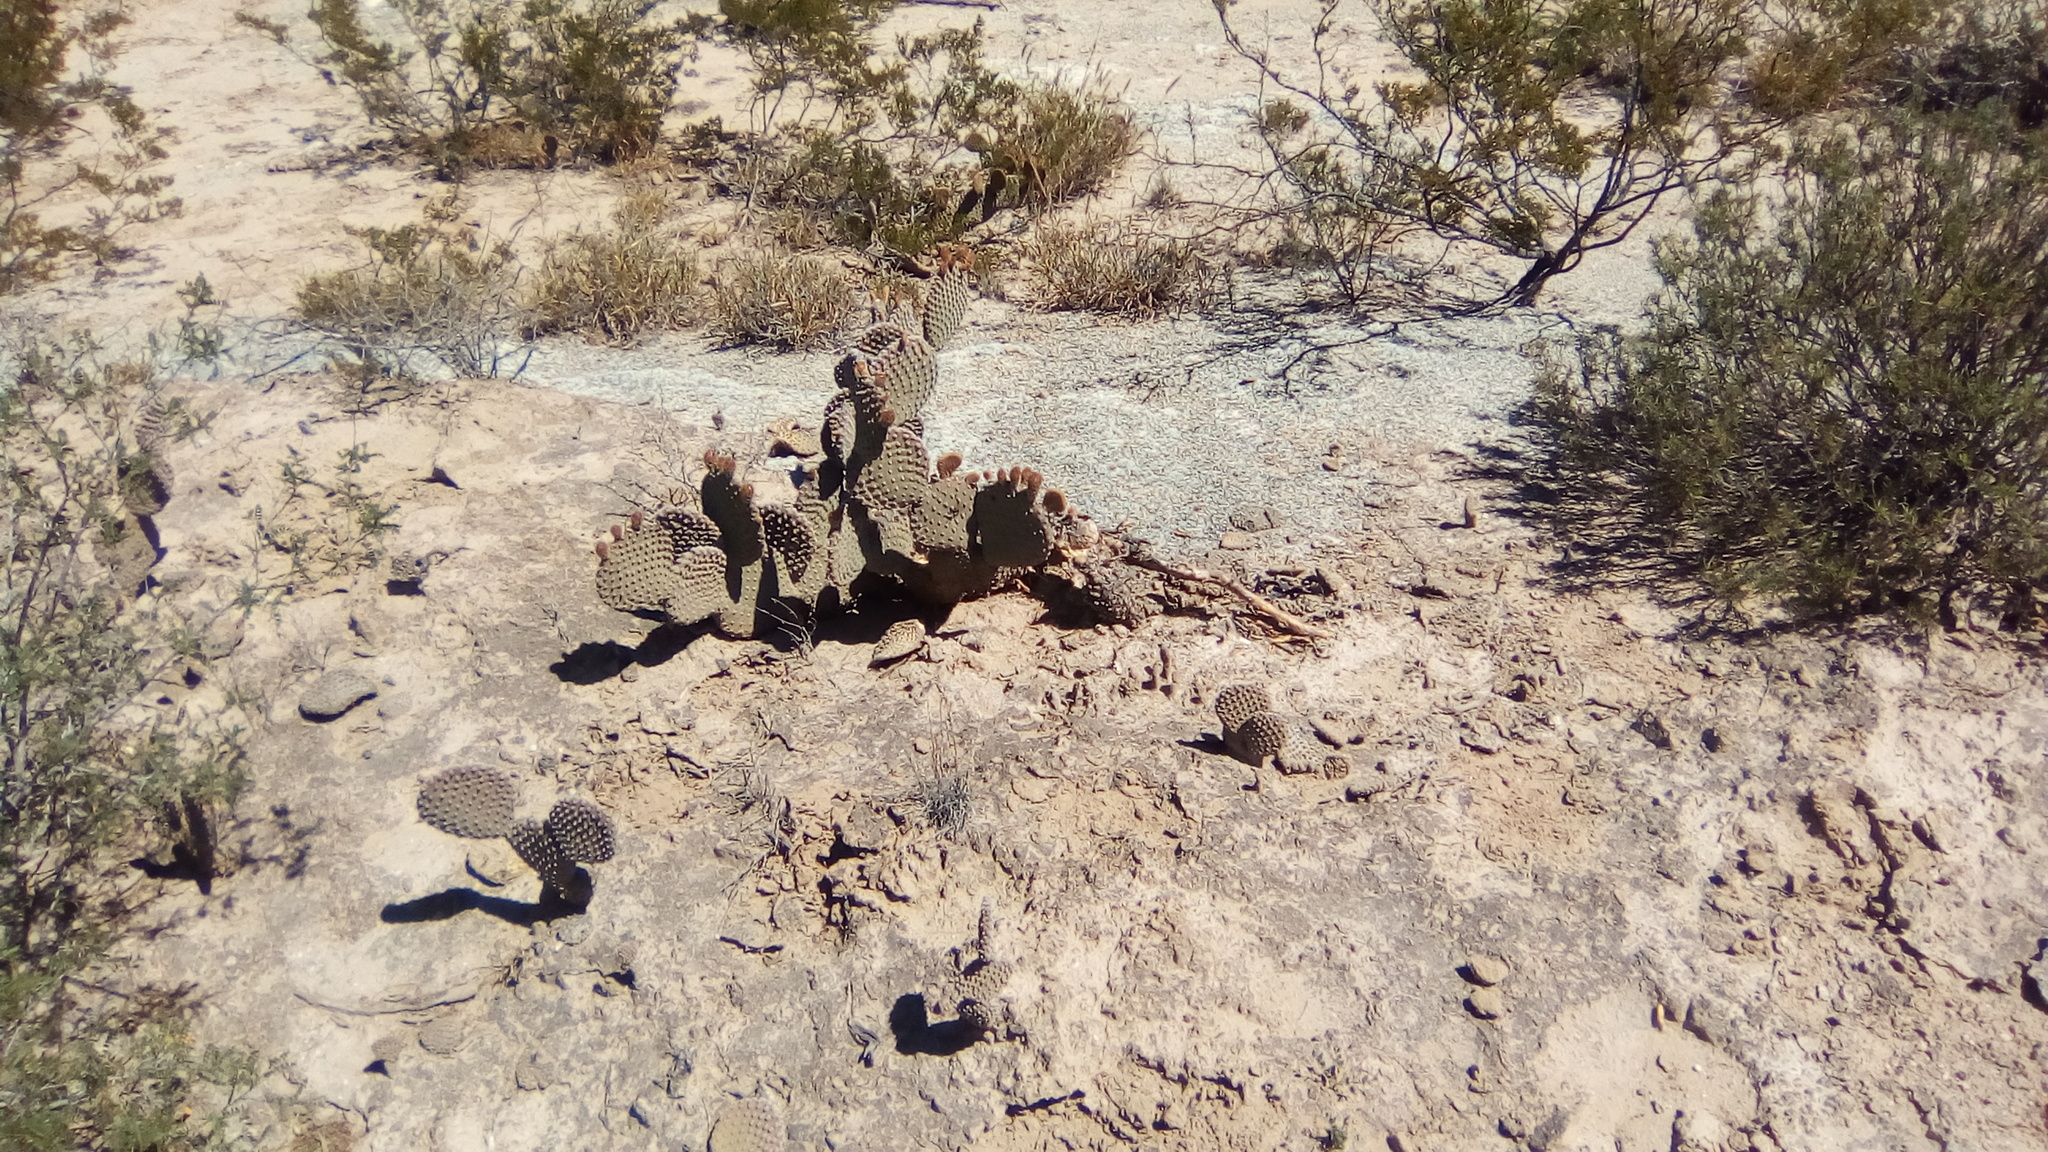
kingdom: Plantae
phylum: Tracheophyta
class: Magnoliopsida
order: Caryophyllales
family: Cactaceae
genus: Opuntia
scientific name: Opuntia microdasys
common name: Angel's-wings
